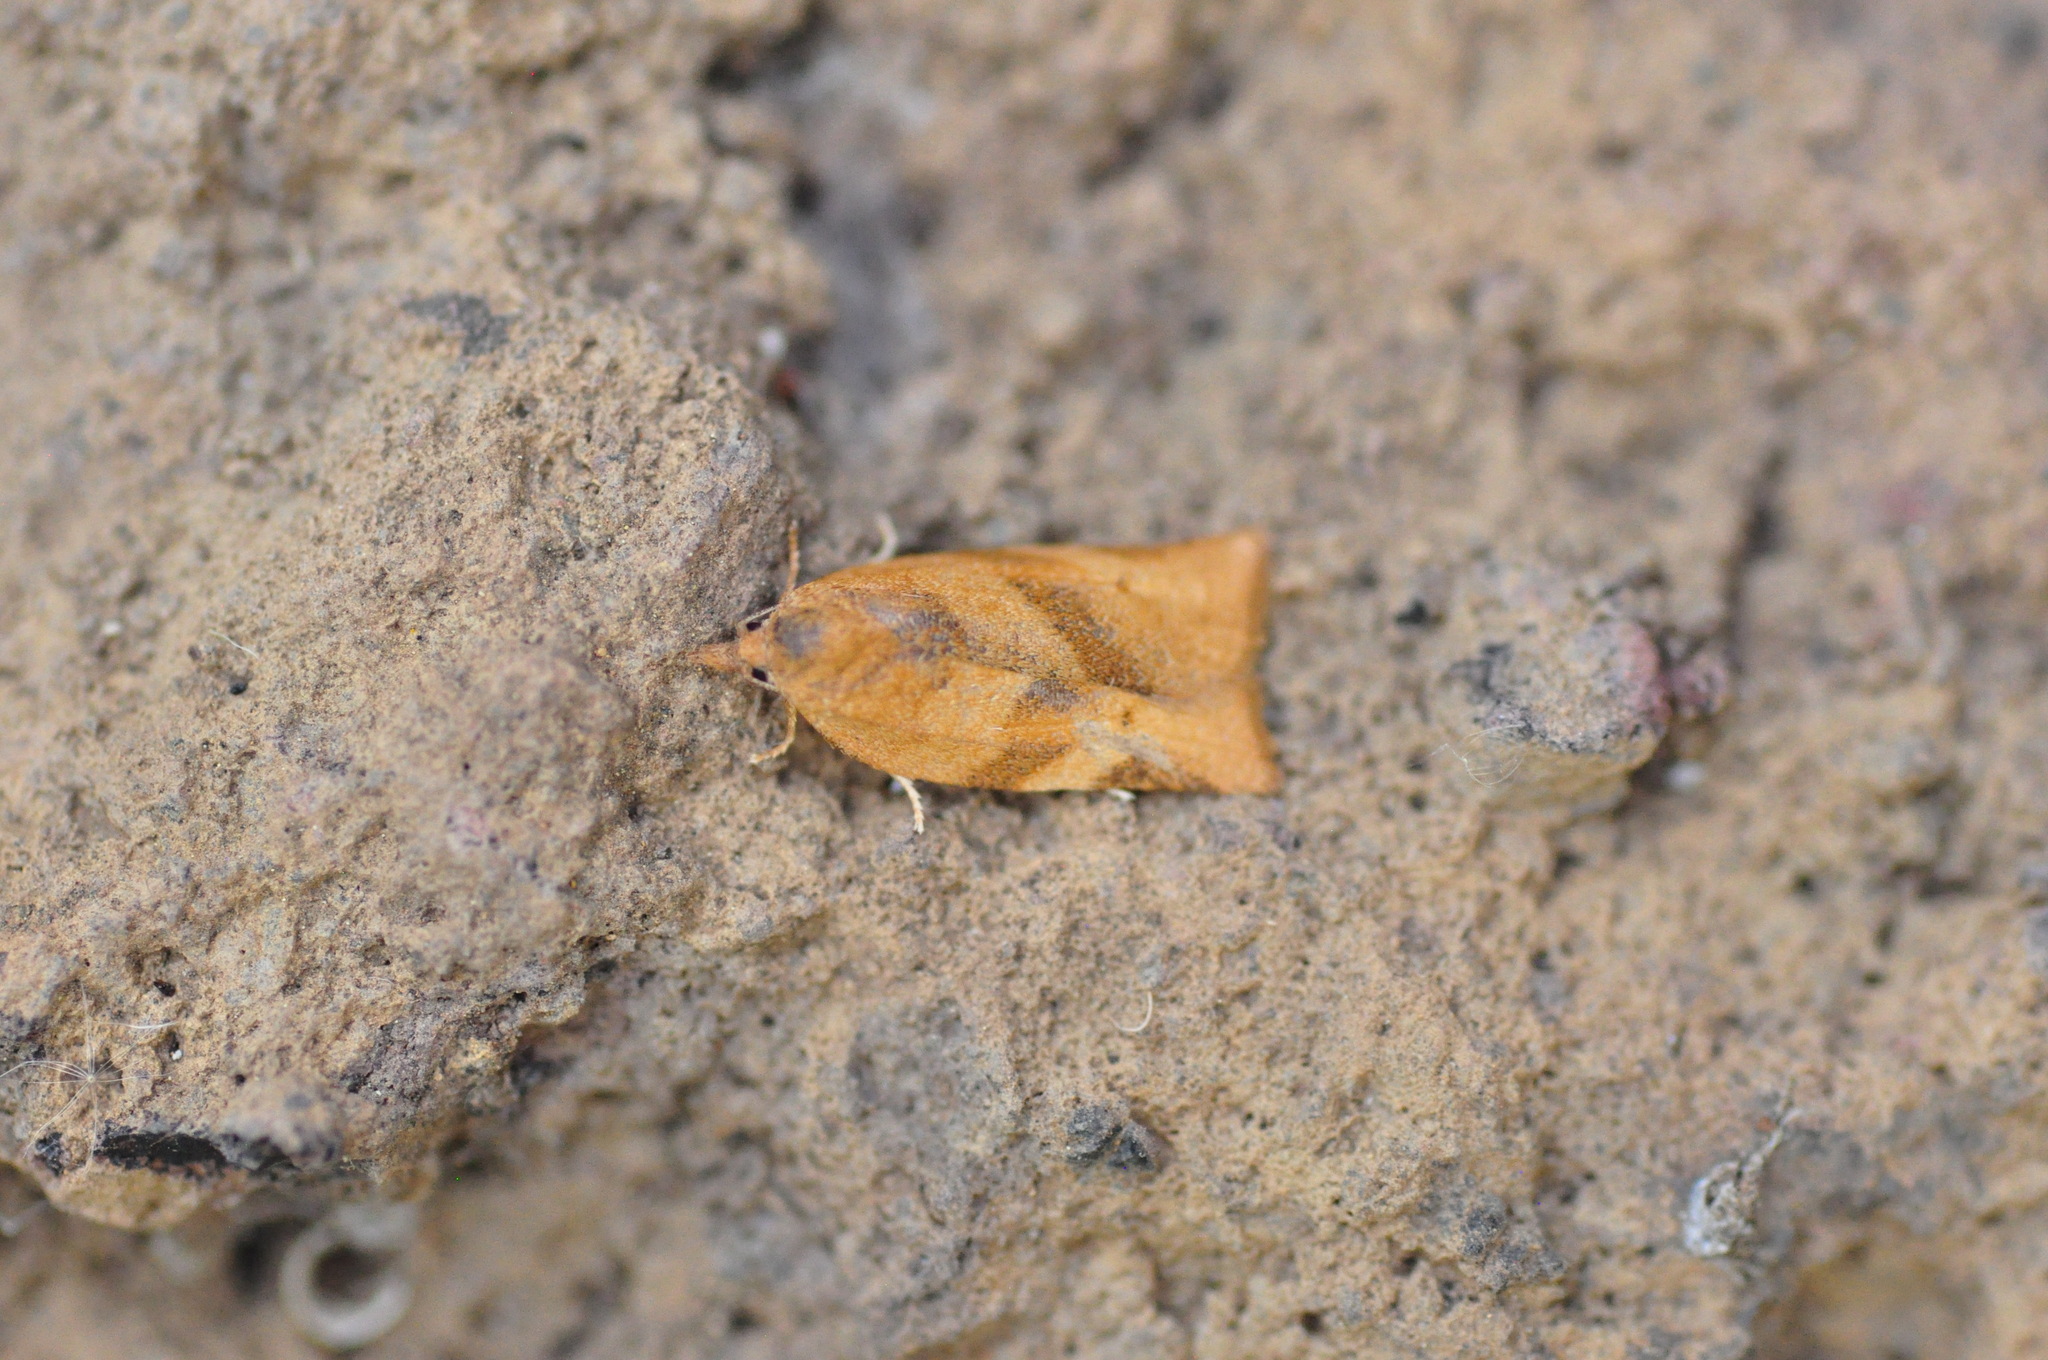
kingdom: Animalia
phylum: Arthropoda
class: Insecta
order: Lepidoptera
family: Tortricidae
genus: Choristoneura
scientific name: Choristoneura simonyi
